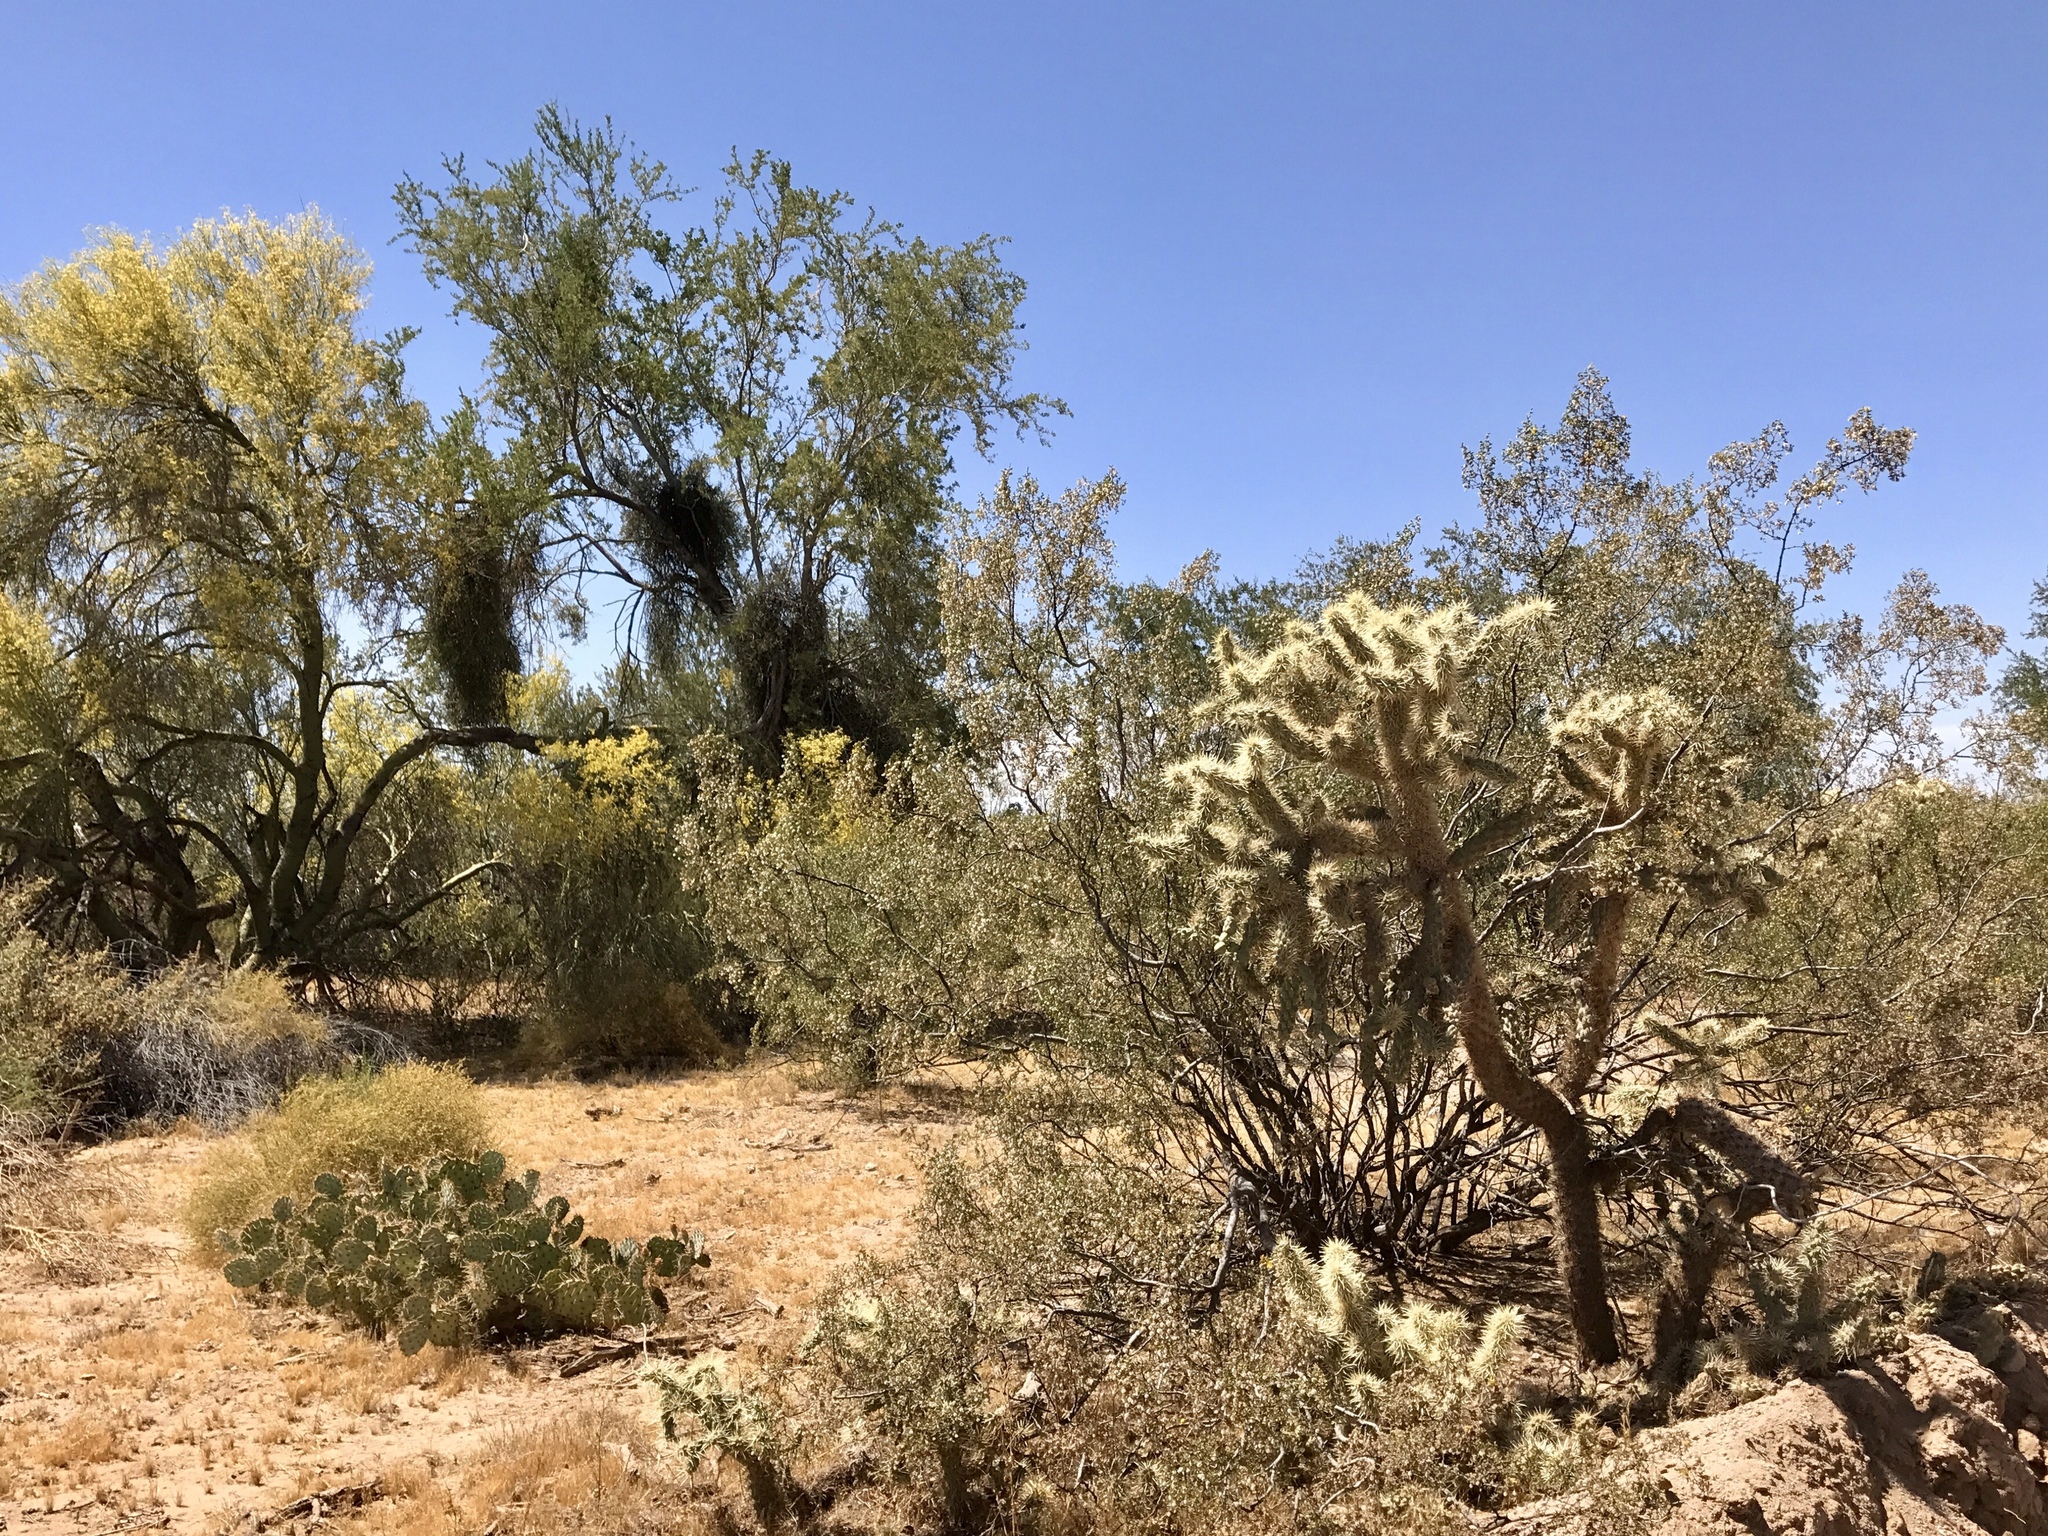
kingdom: Plantae
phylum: Tracheophyta
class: Magnoliopsida
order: Caryophyllales
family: Cactaceae
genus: Cylindropuntia
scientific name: Cylindropuntia fulgida
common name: Jumping cholla
